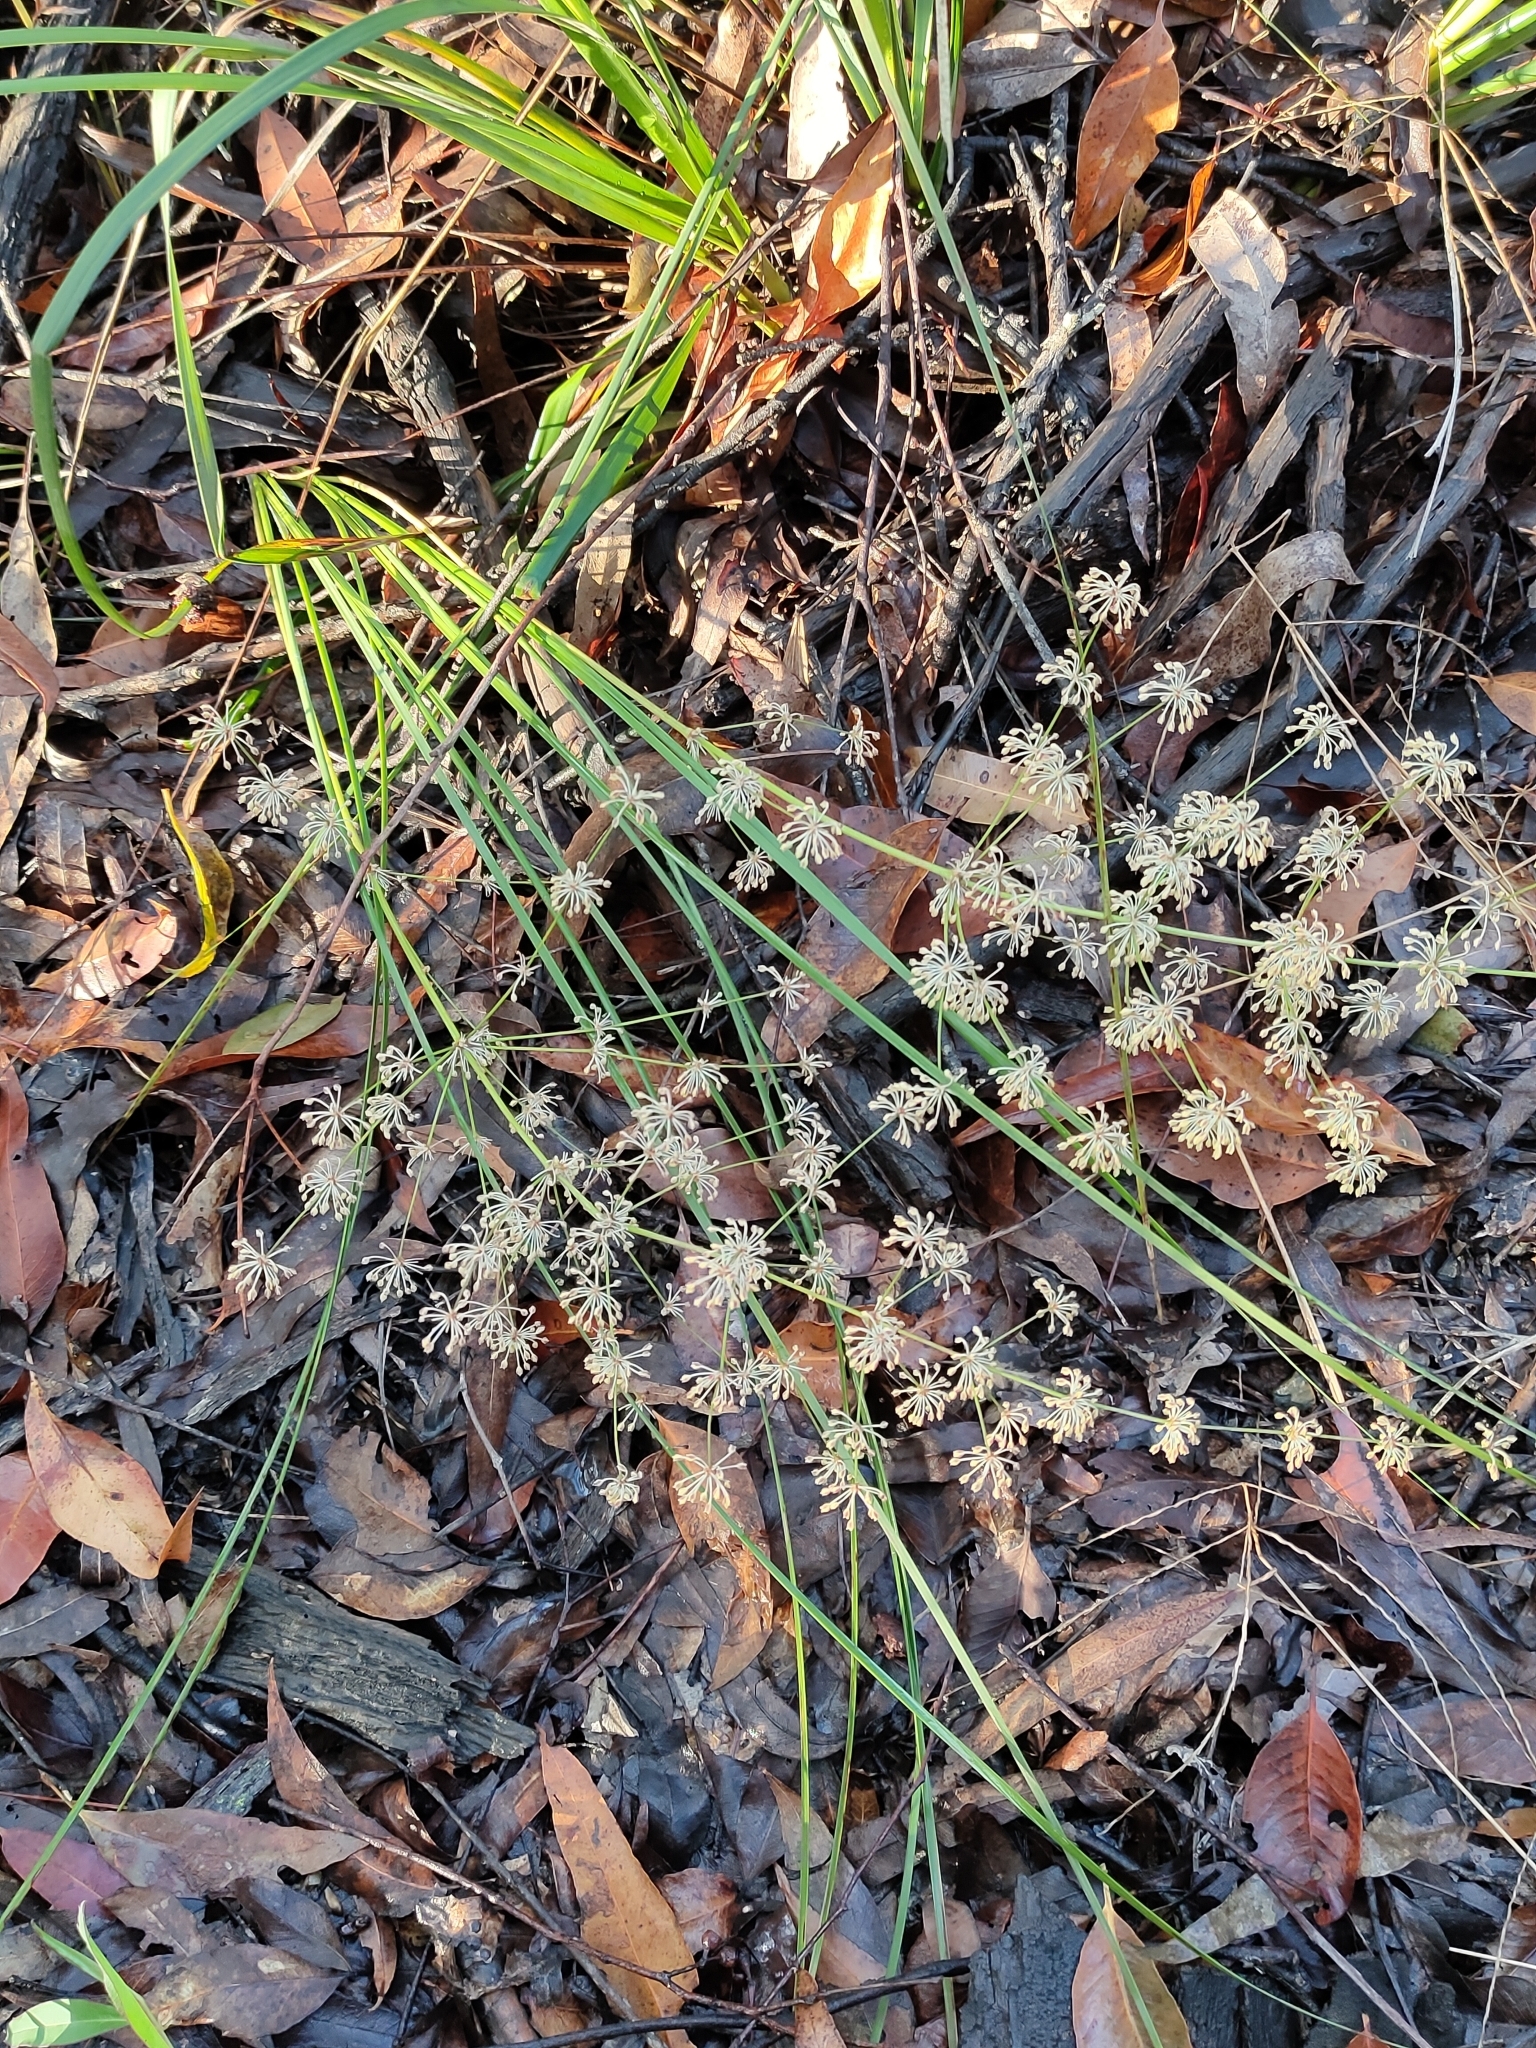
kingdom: Plantae
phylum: Tracheophyta
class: Liliopsida
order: Asparagales
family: Asparagaceae
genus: Lomandra
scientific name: Lomandra multiflora
